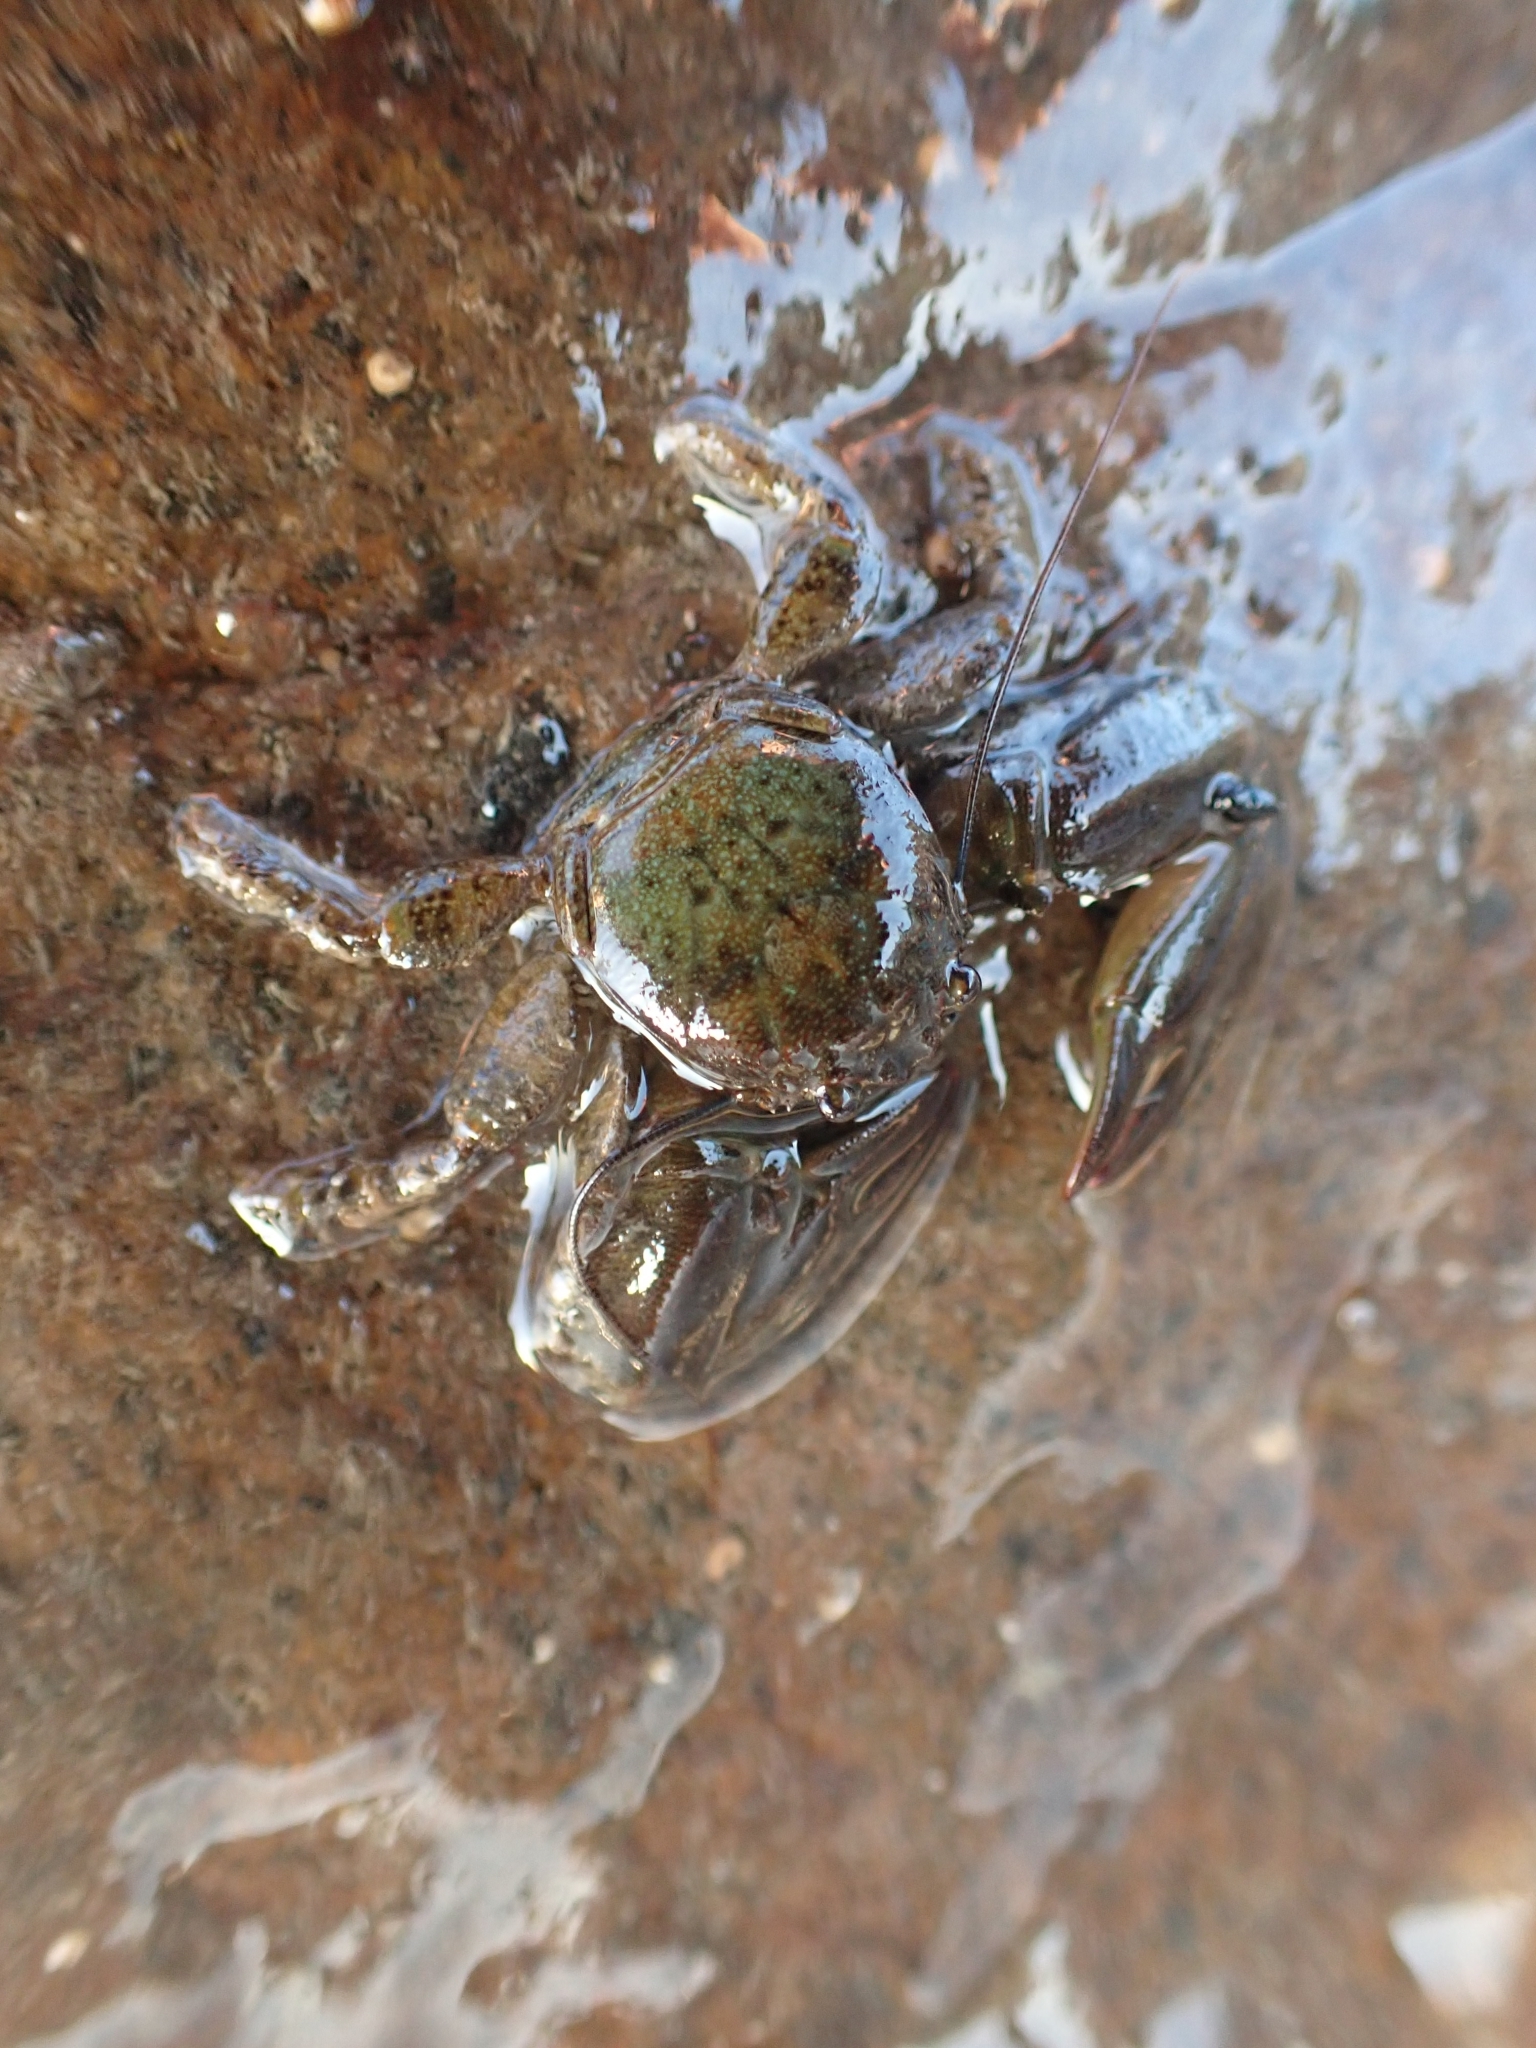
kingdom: Animalia
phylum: Arthropoda
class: Malacostraca
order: Decapoda
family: Porcellanidae
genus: Petrolisthes
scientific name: Petrolisthes elongatus
